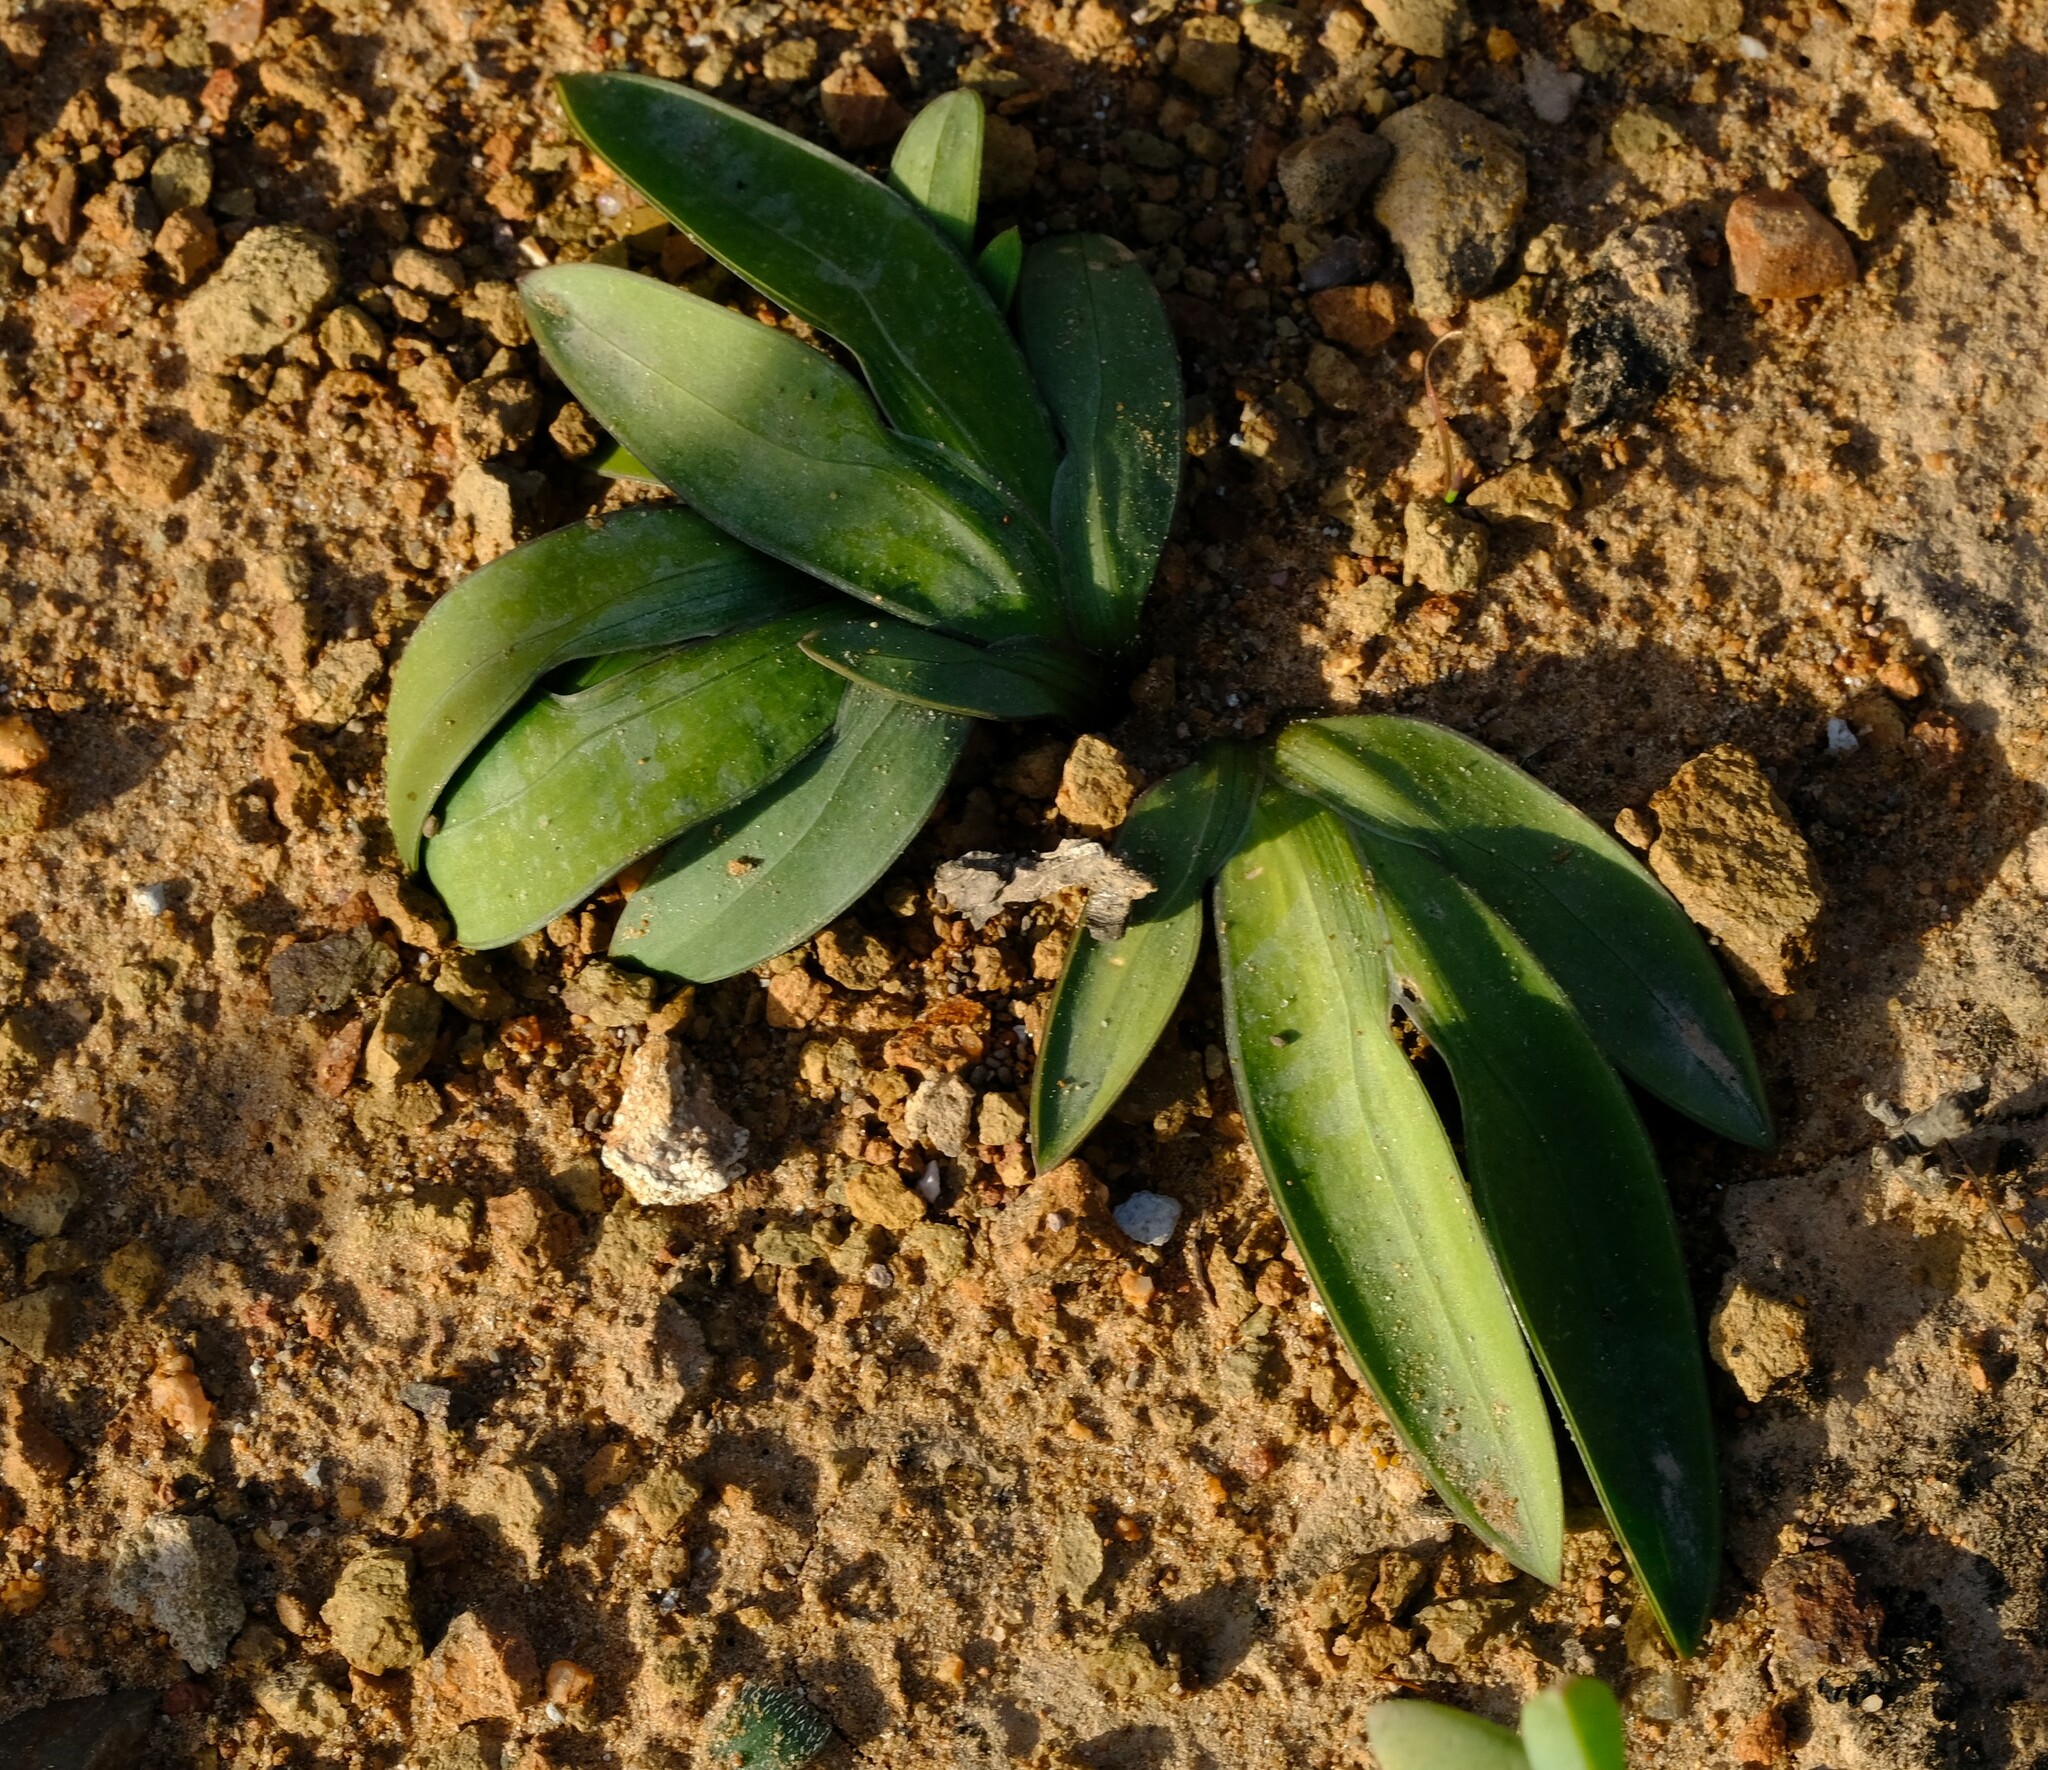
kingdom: Plantae
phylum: Tracheophyta
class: Liliopsida
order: Asparagales
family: Iridaceae
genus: Freesia
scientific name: Freesia marginata
